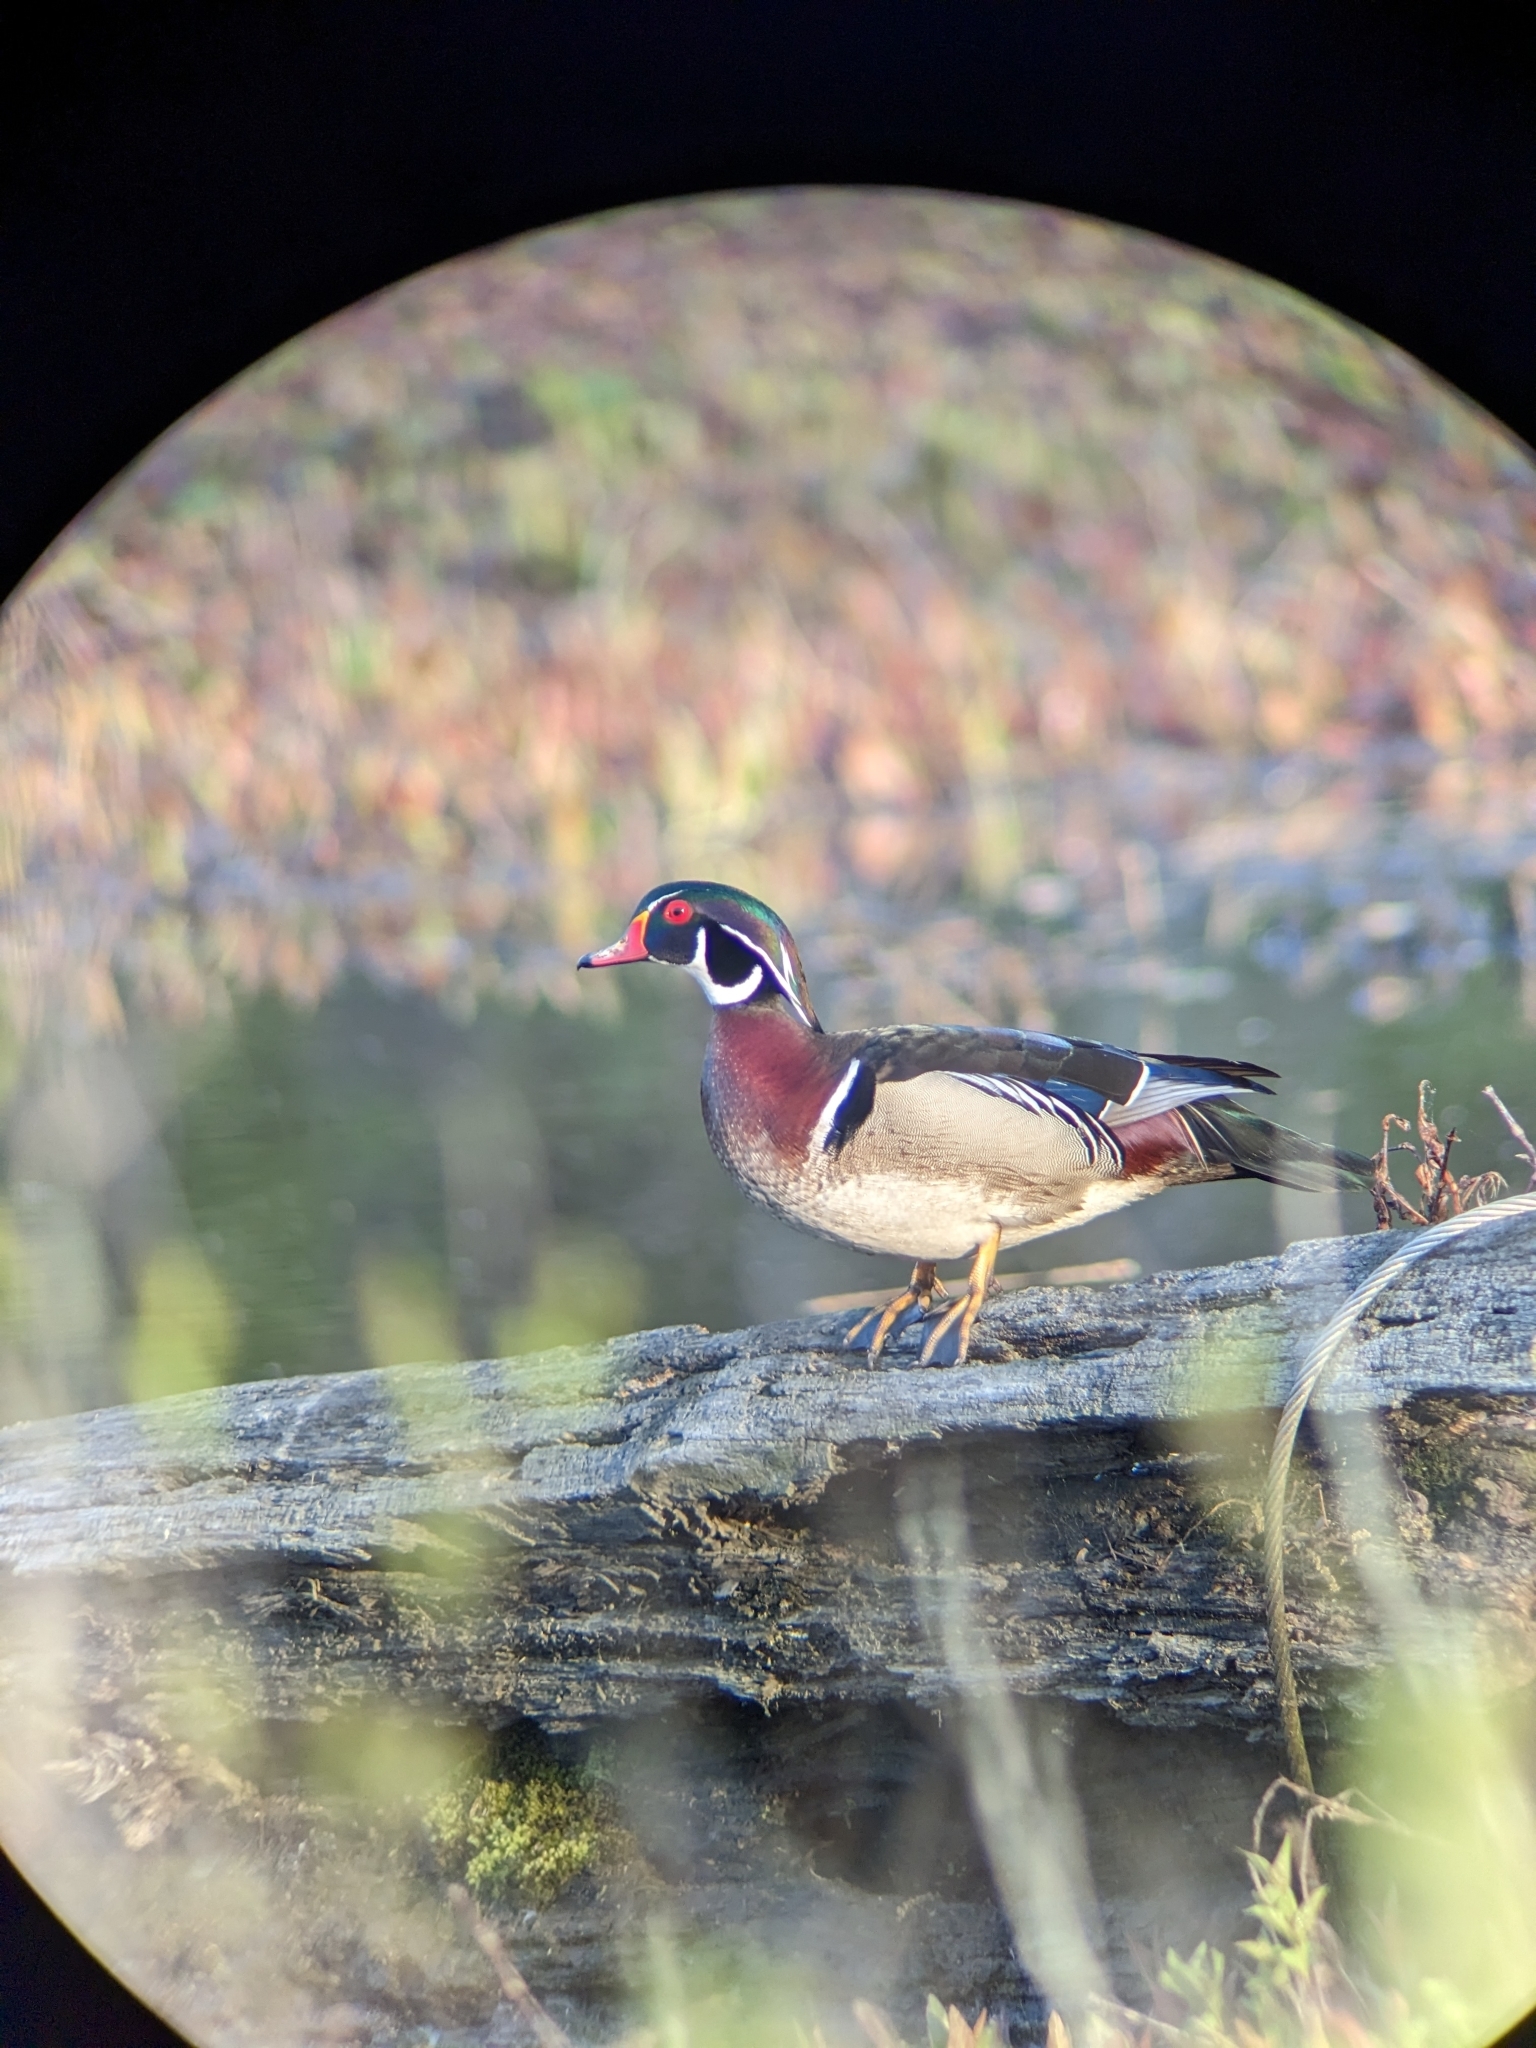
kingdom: Animalia
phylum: Chordata
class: Aves
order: Anseriformes
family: Anatidae
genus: Aix
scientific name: Aix sponsa
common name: Wood duck
